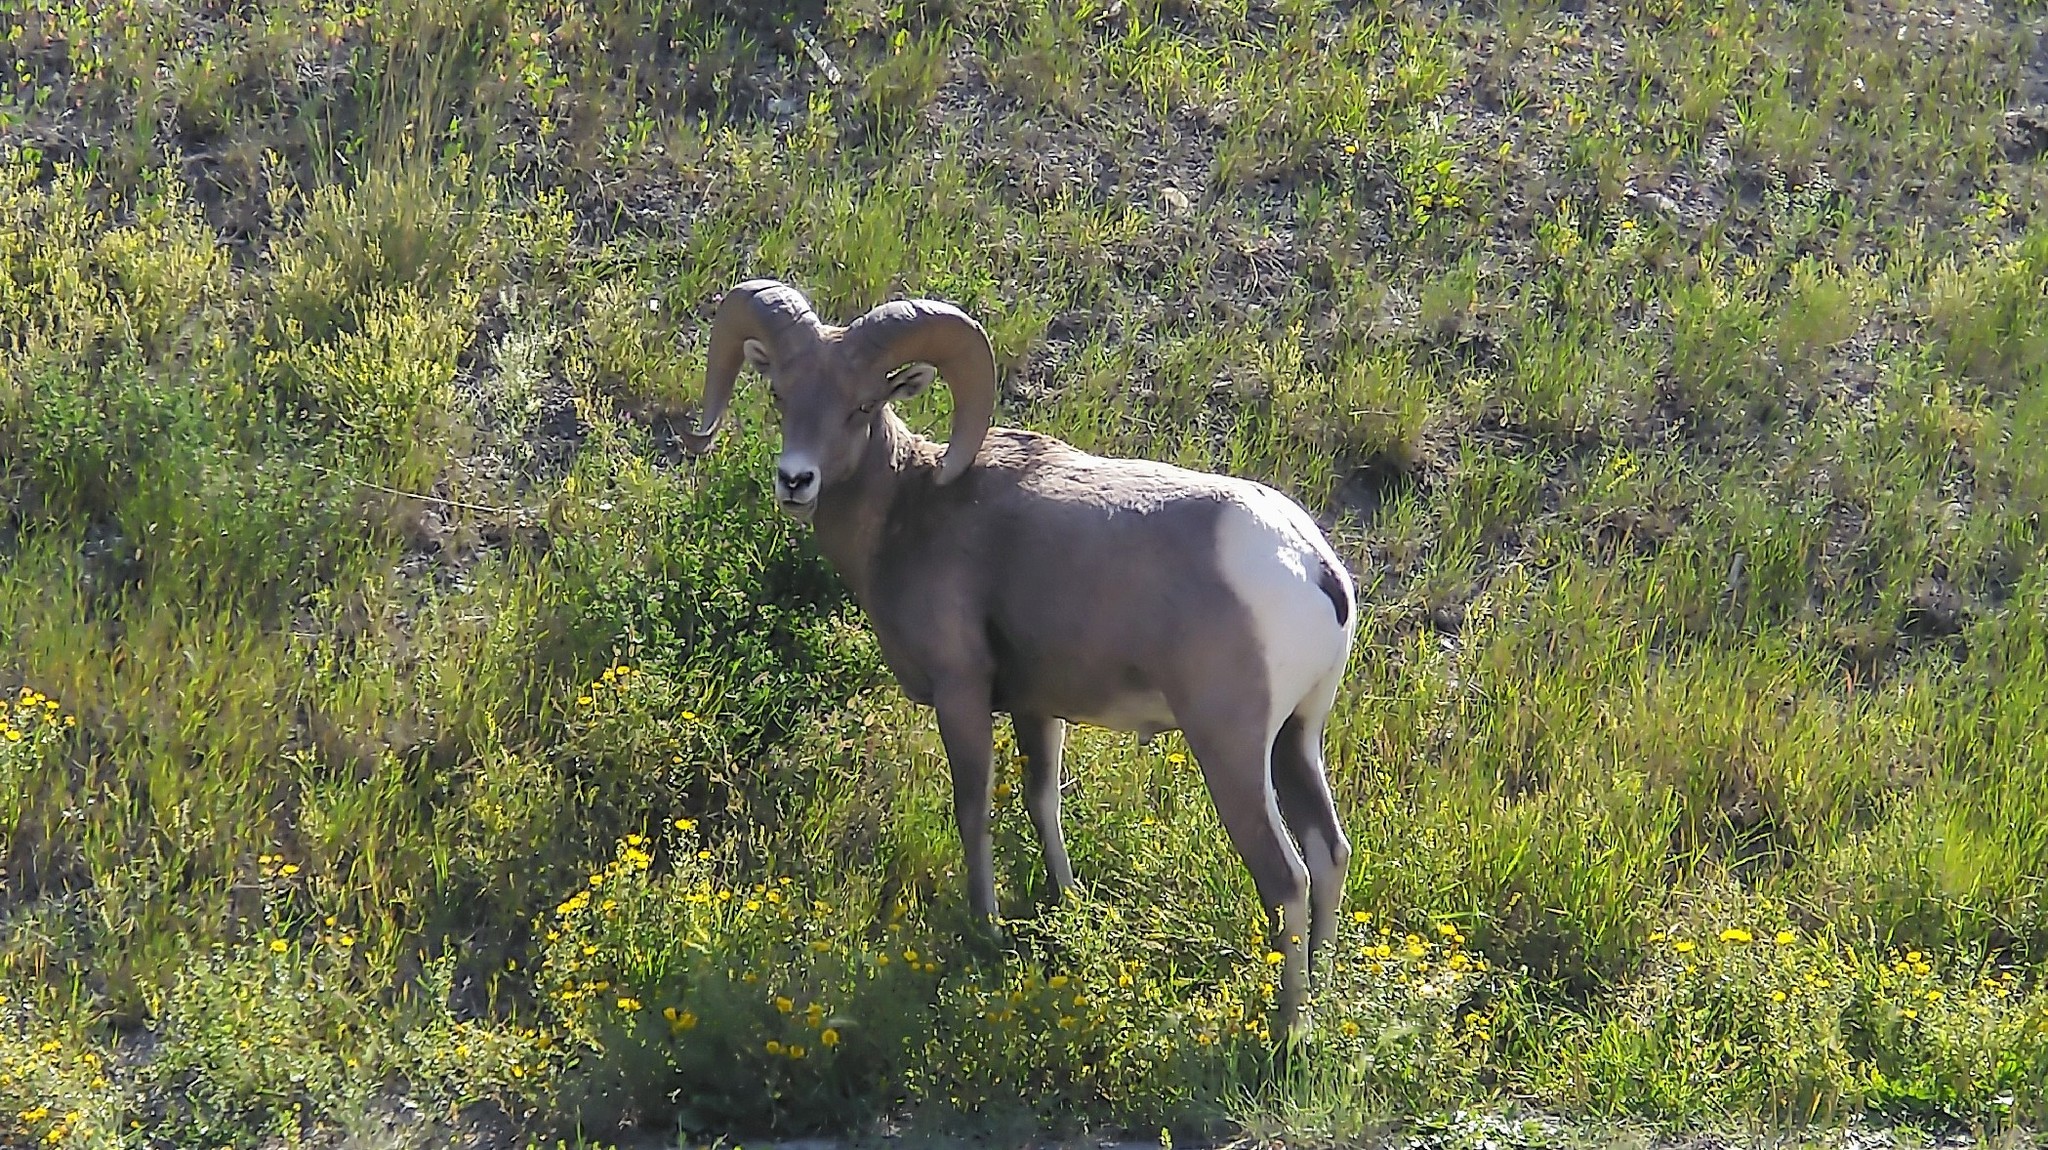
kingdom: Animalia
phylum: Chordata
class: Mammalia
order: Artiodactyla
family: Bovidae
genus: Ovis
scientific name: Ovis canadensis
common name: Bighorn sheep
